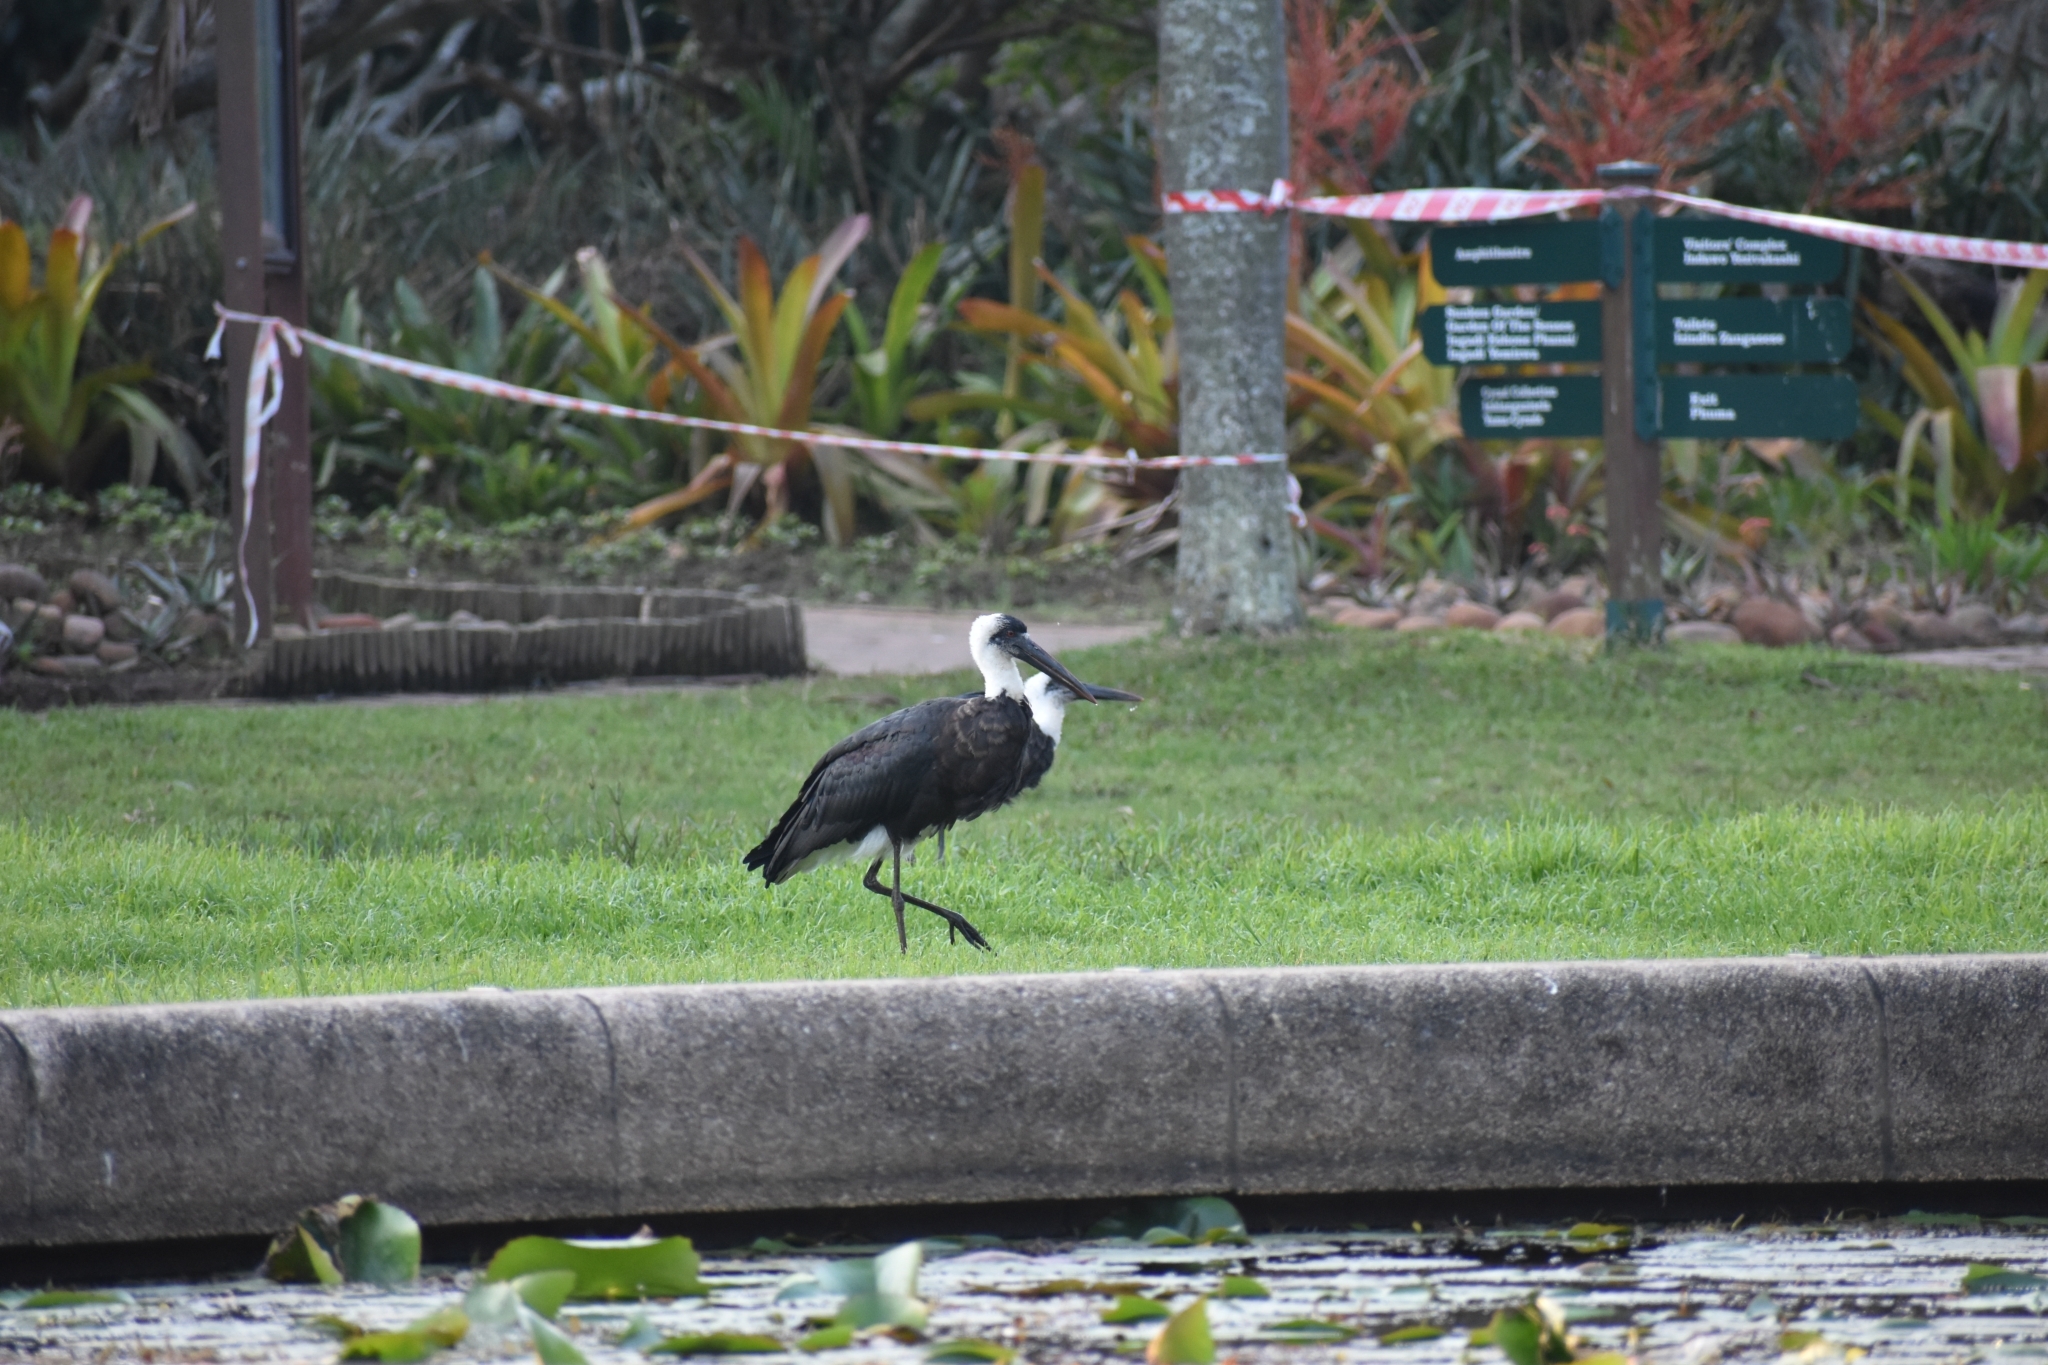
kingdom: Animalia
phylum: Chordata
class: Aves
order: Ciconiiformes
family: Ciconiidae
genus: Ciconia
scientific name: Ciconia microscelis
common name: African woollyneck
